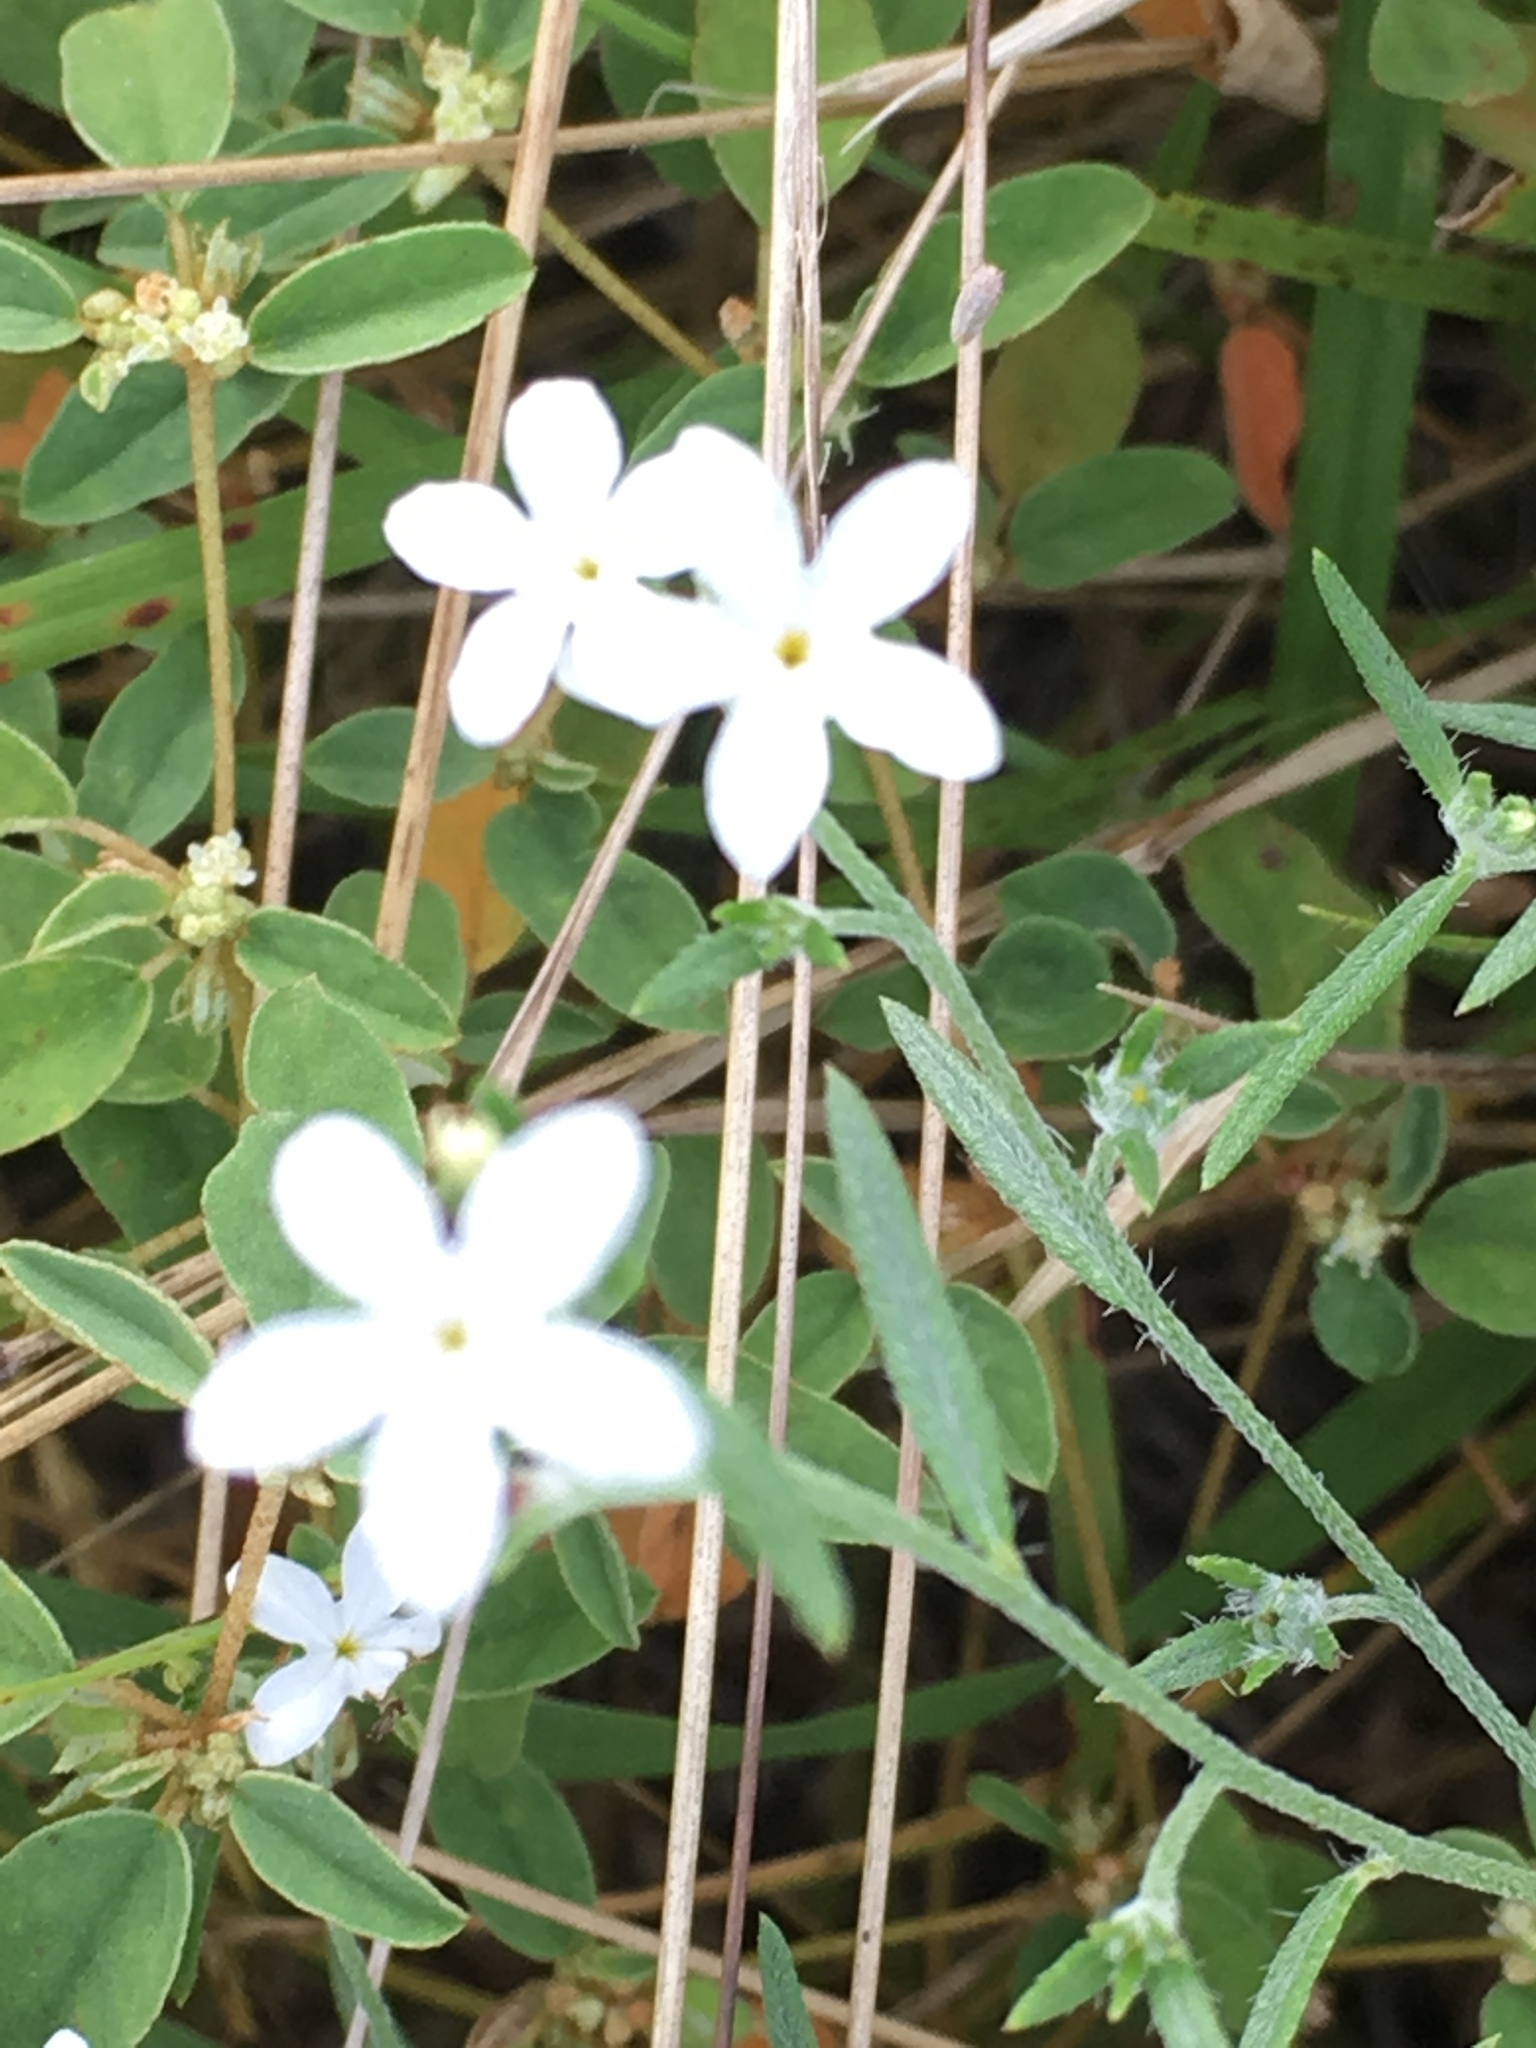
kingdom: Plantae
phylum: Tracheophyta
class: Magnoliopsida
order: Boraginales
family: Heliotropiaceae
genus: Euploca
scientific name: Euploca tenella
